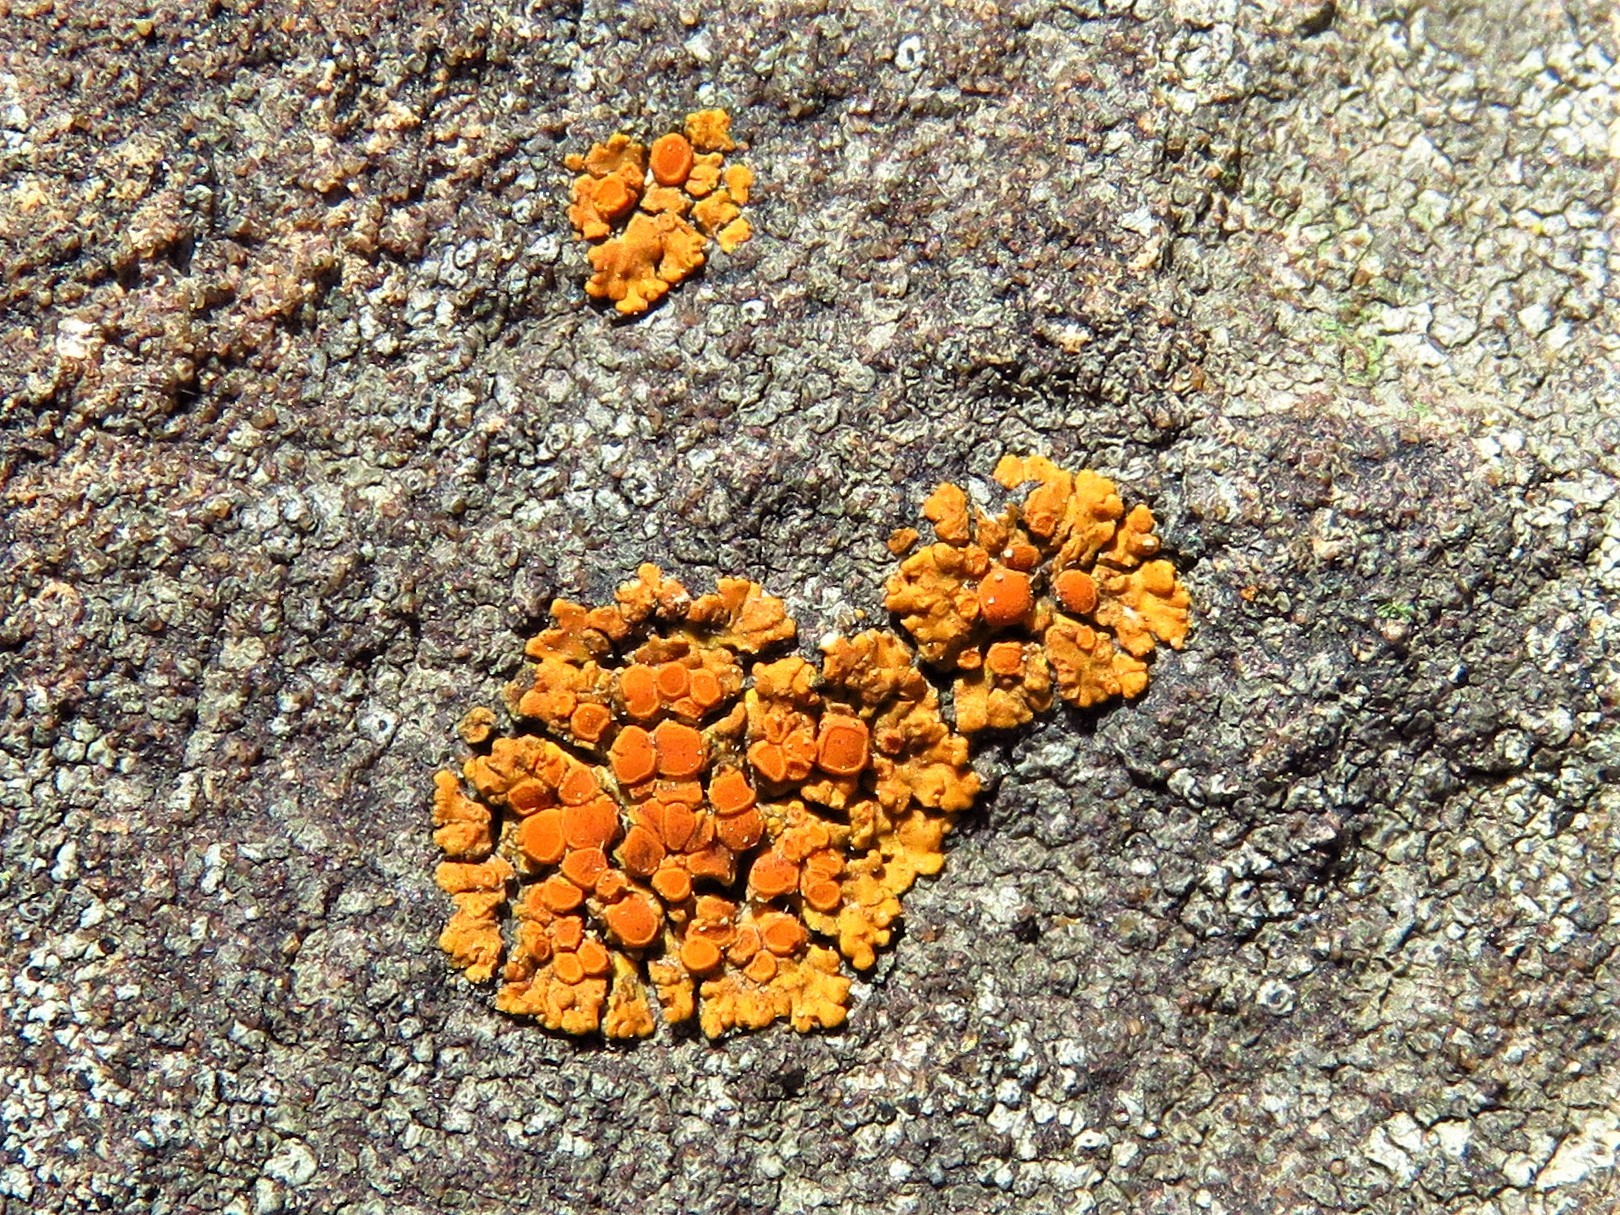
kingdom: Fungi
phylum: Ascomycota
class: Lecanoromycetes
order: Teloschistales
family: Teloschistaceae
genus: Squamulea
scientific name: Squamulea subsoluta
